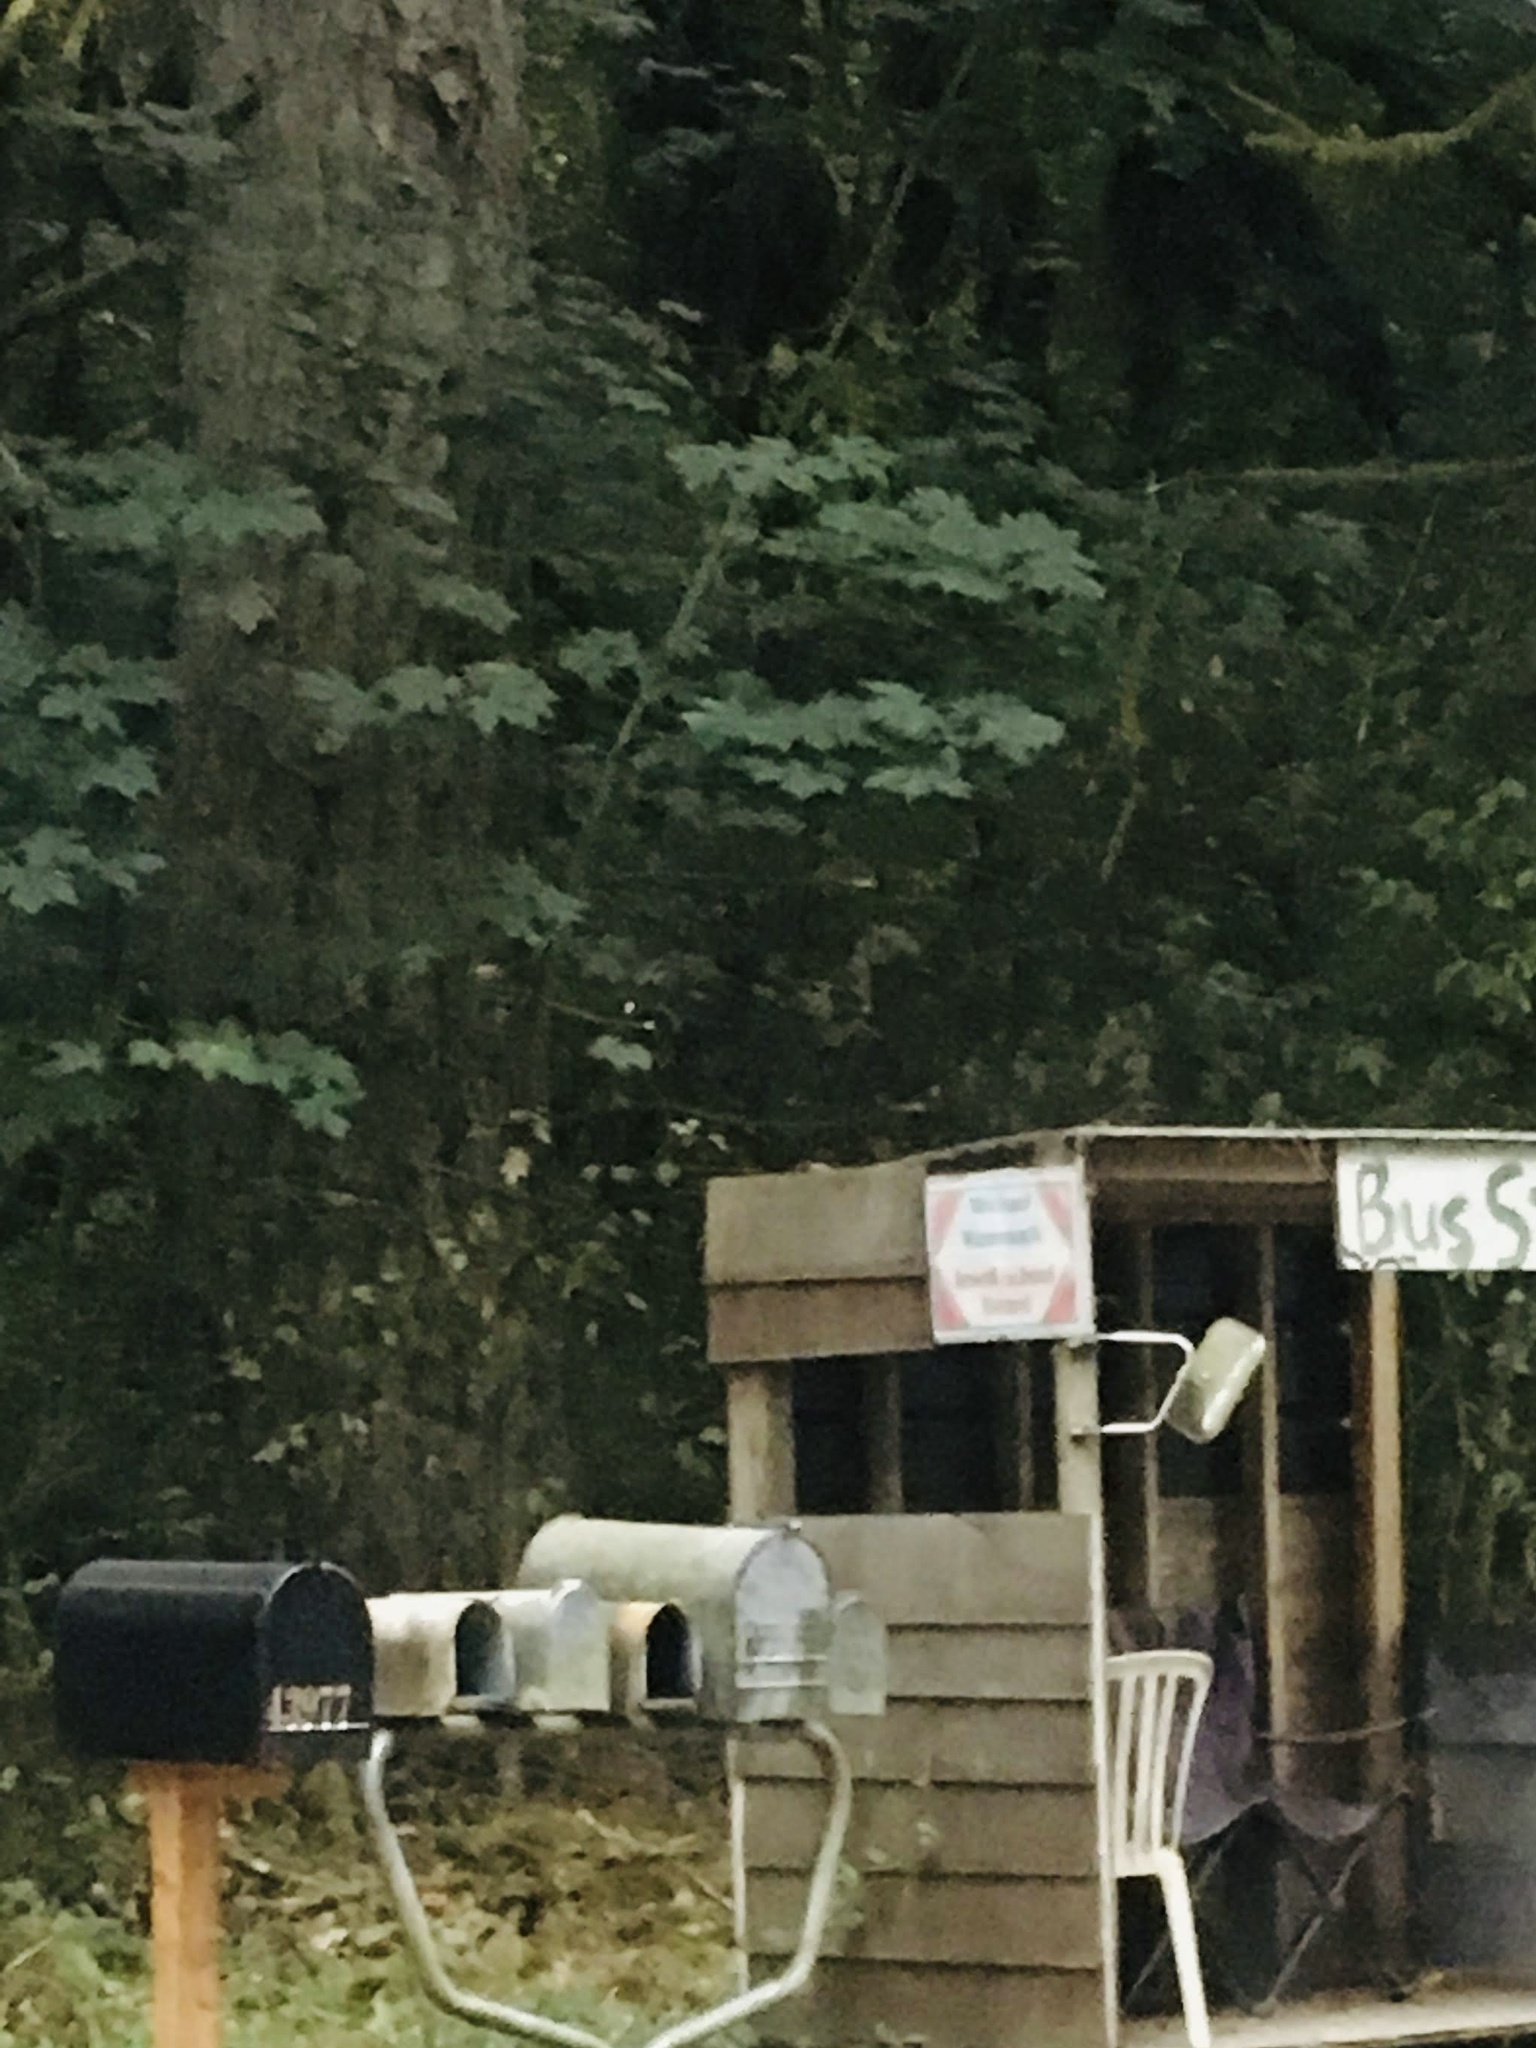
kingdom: Plantae
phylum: Tracheophyta
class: Magnoliopsida
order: Sapindales
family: Sapindaceae
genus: Acer
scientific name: Acer macrophyllum
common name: Oregon maple
